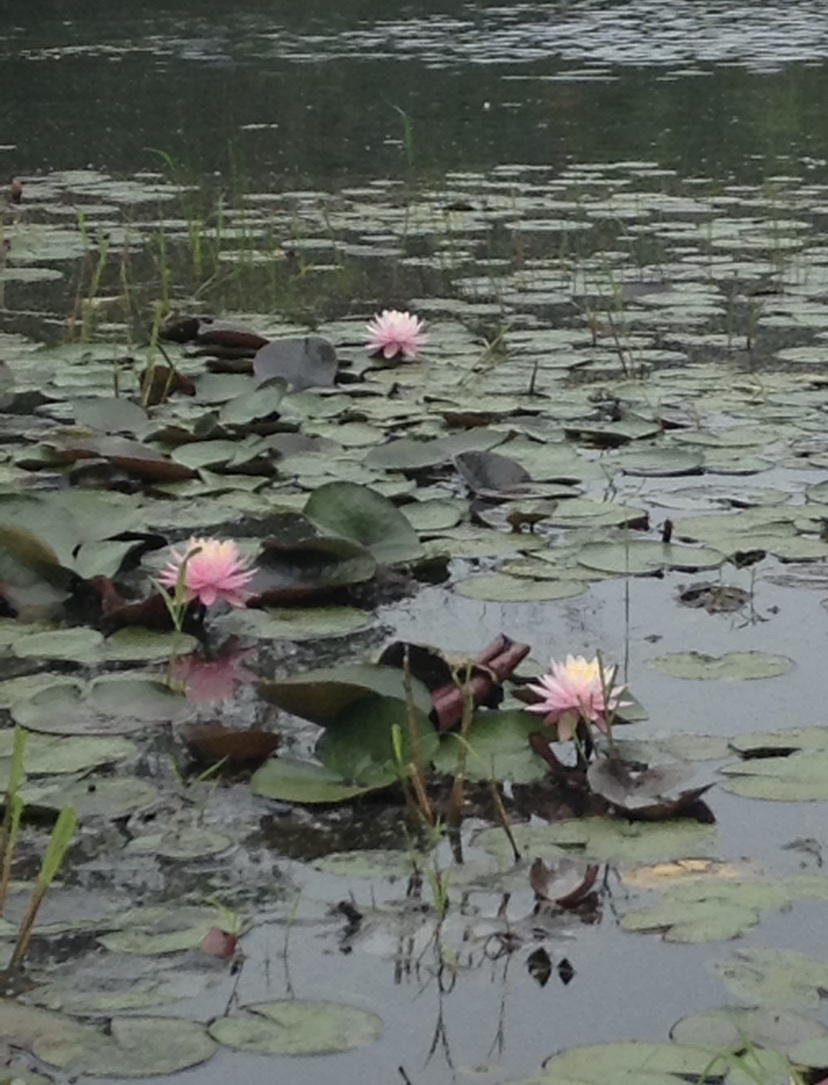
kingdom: Plantae
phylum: Tracheophyta
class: Magnoliopsida
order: Nymphaeales
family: Nymphaeaceae
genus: Nymphaea
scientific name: Nymphaea odorata
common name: Fragrant water-lily
